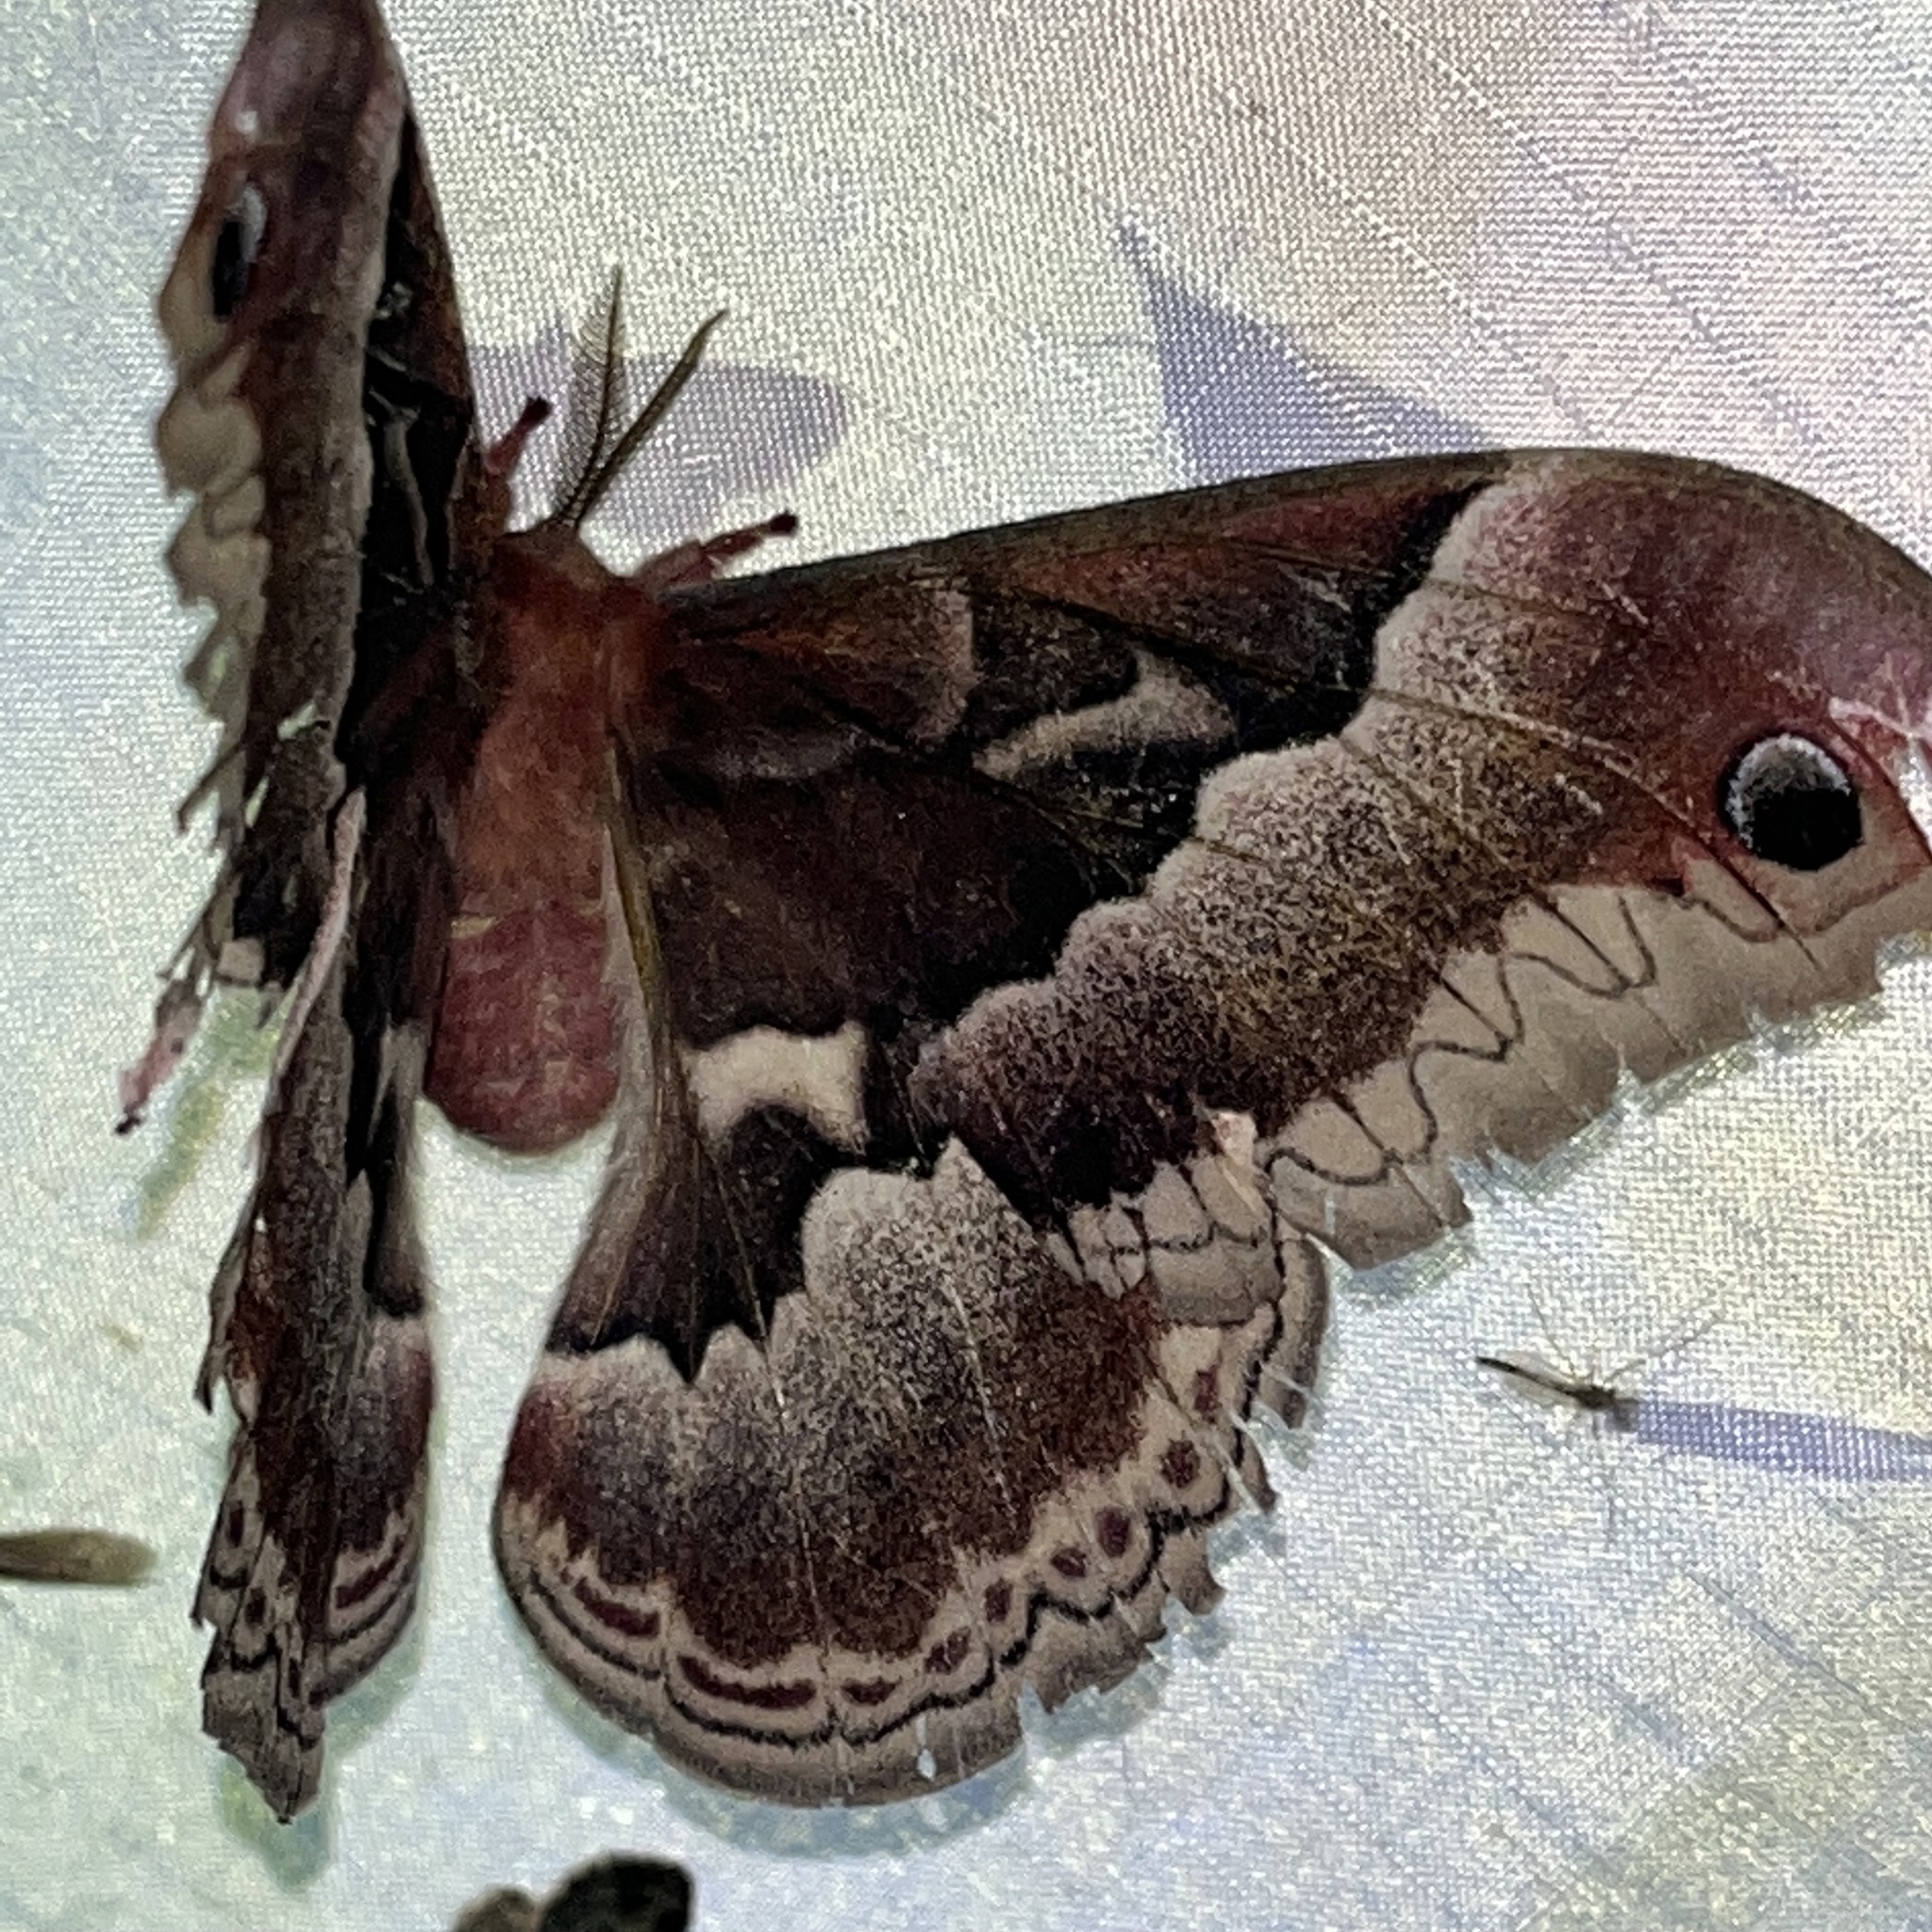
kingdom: Animalia
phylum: Arthropoda
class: Insecta
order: Lepidoptera
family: Saturniidae
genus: Callosamia
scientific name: Callosamia promethea
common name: Promethea silkmoth
